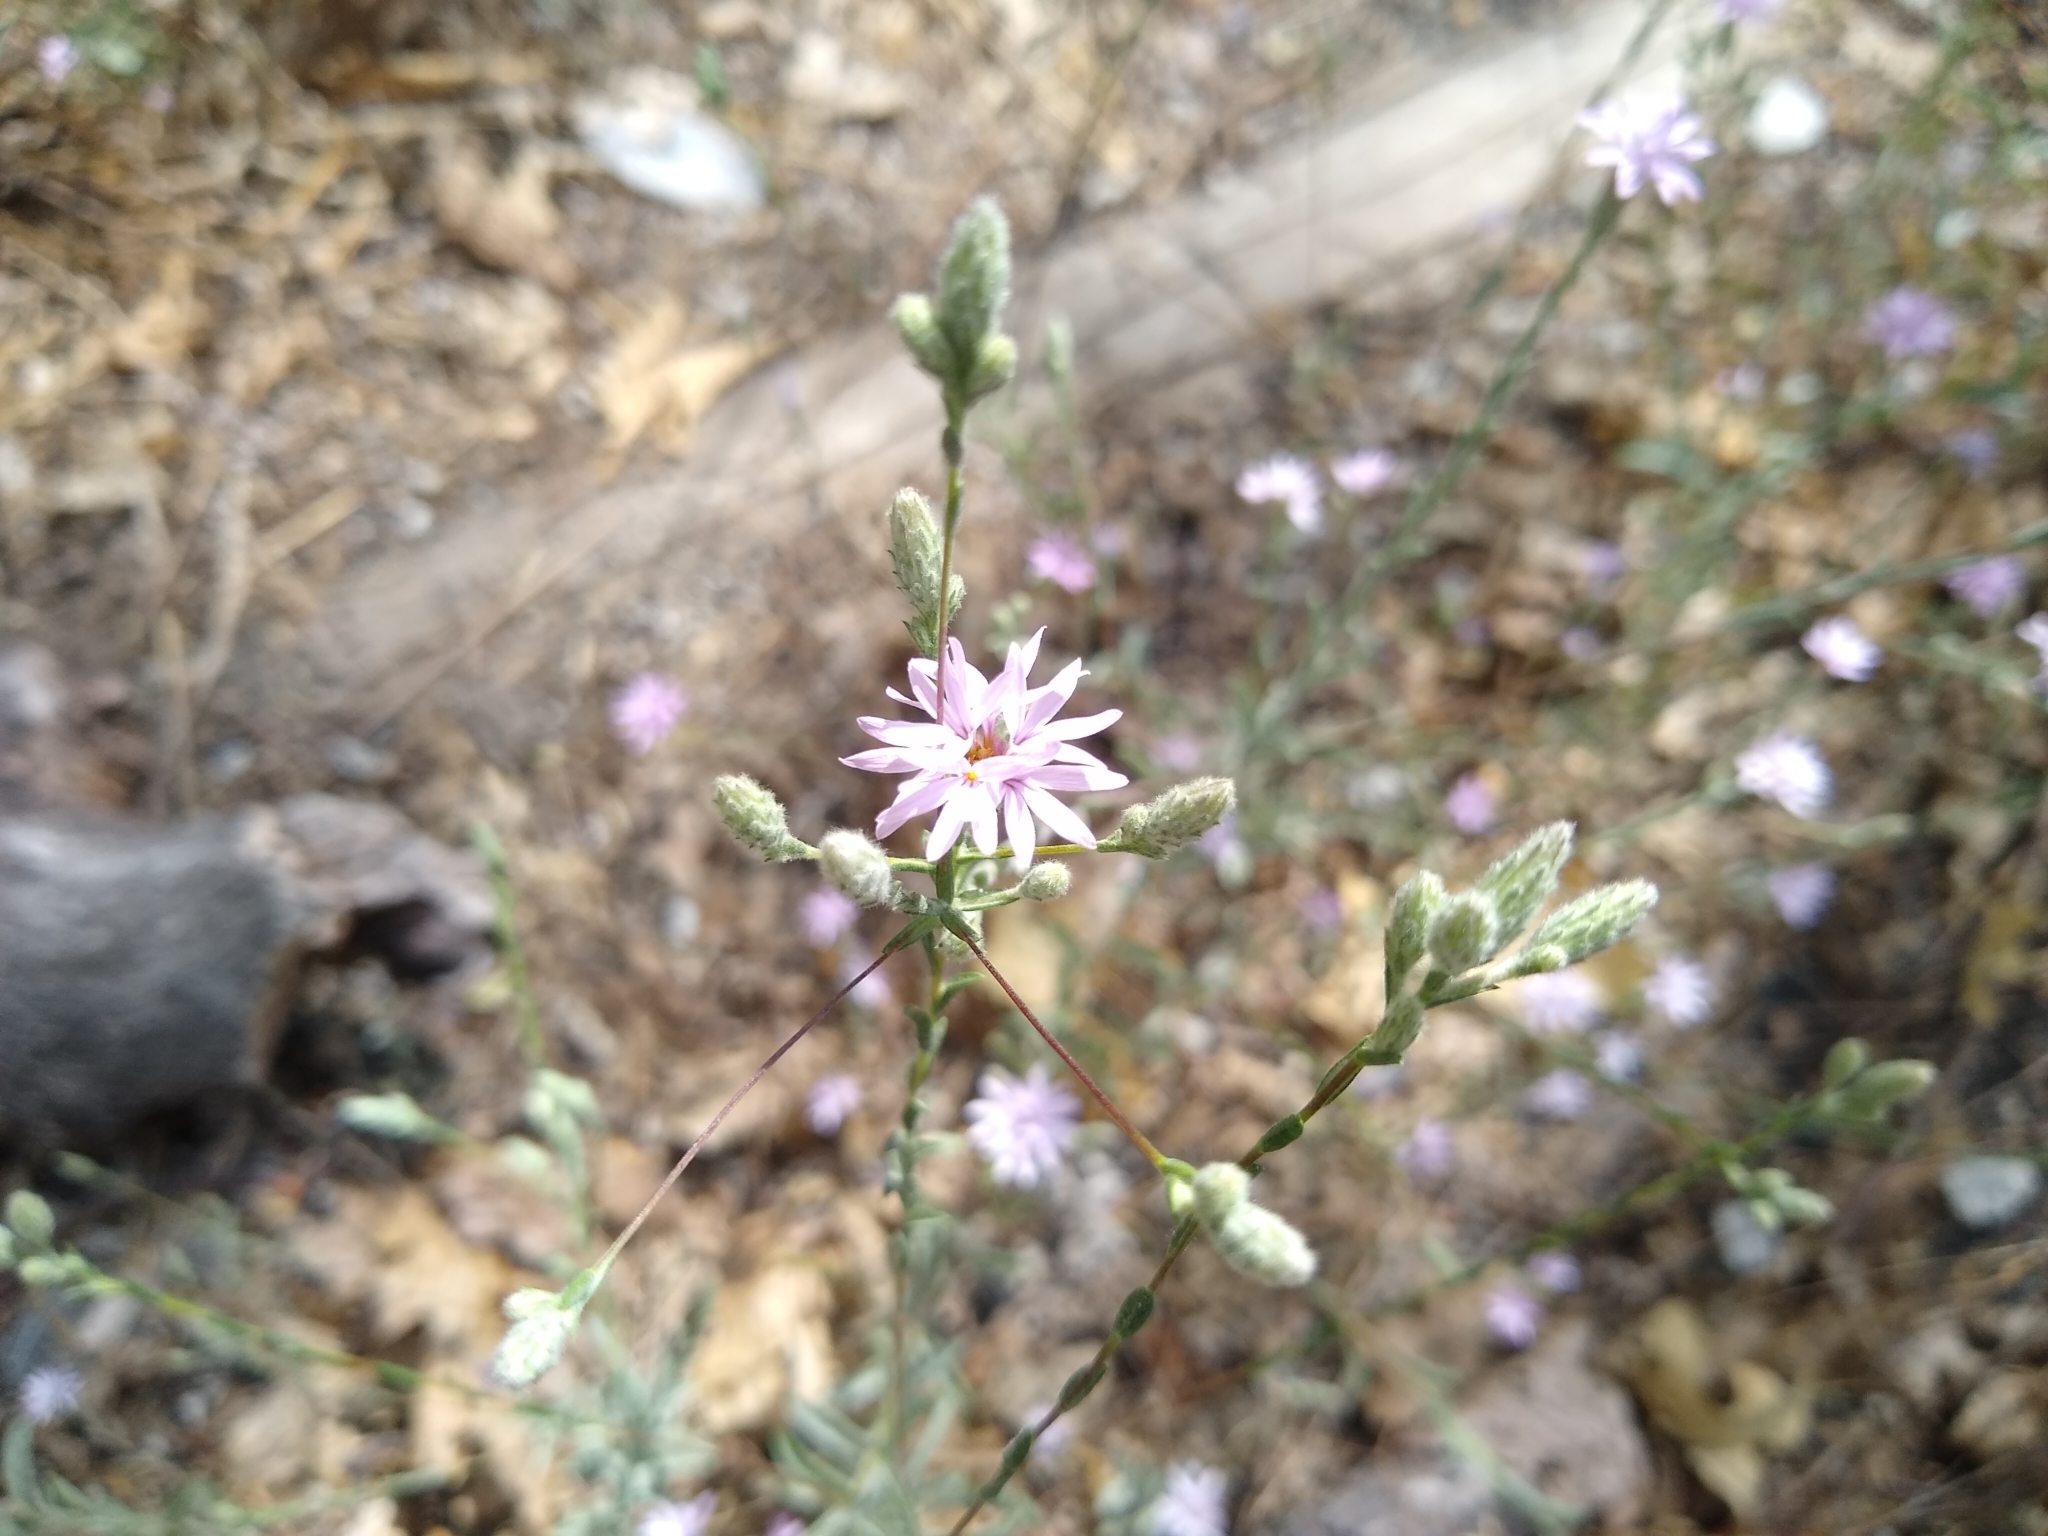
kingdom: Plantae
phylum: Tracheophyta
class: Magnoliopsida
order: Asterales
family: Asteraceae
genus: Lessingia
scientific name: Lessingia leptoclada
